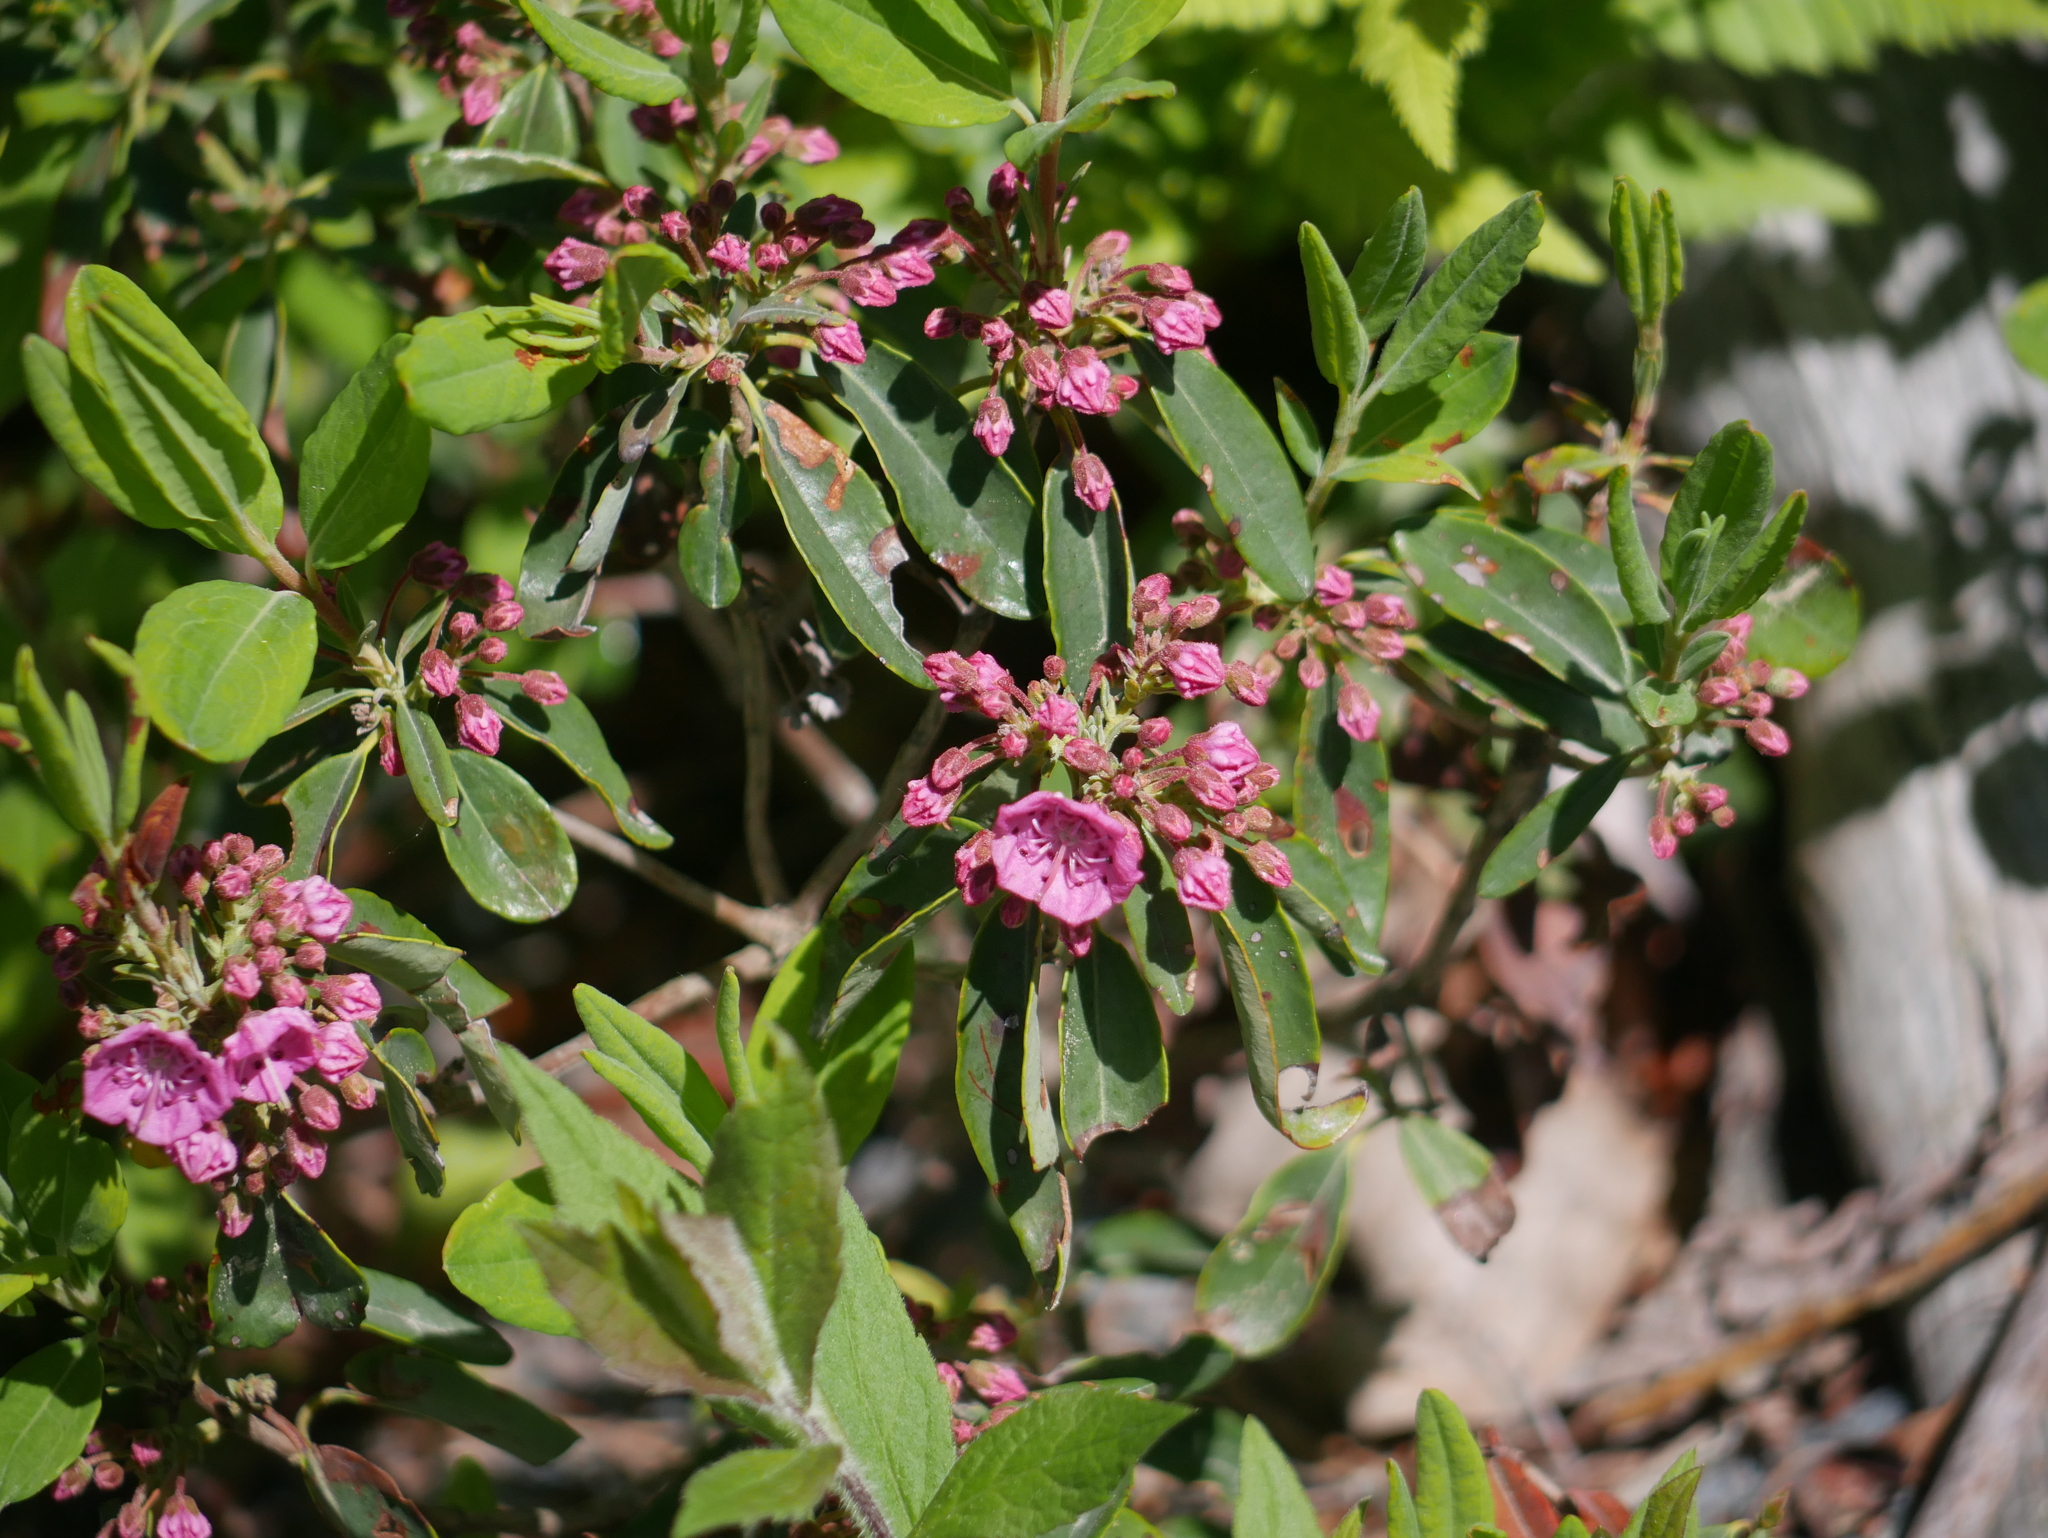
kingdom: Plantae
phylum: Tracheophyta
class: Magnoliopsida
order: Ericales
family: Ericaceae
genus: Kalmia
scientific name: Kalmia angustifolia
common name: Sheep-laurel
